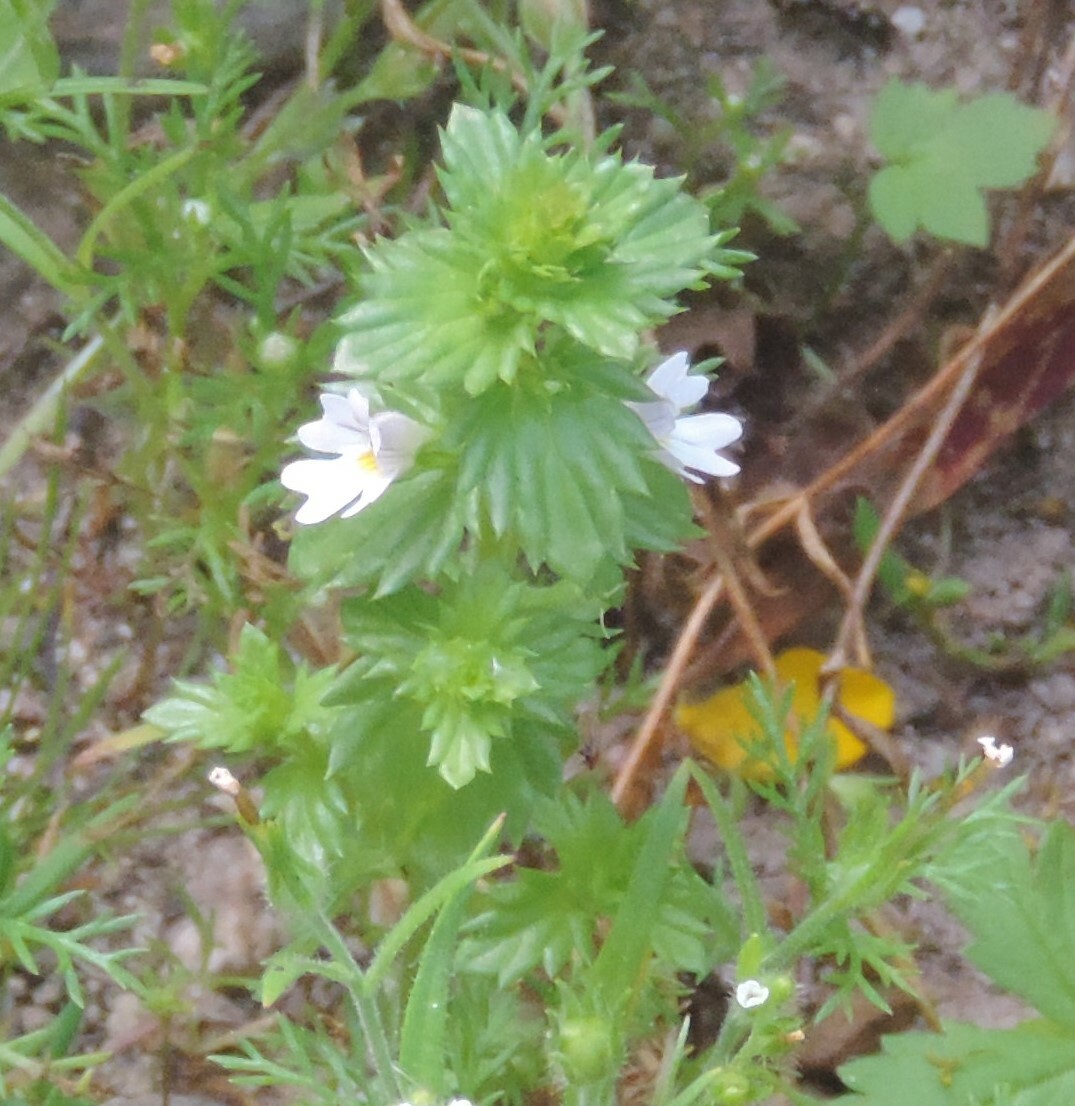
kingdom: Plantae
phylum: Tracheophyta
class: Magnoliopsida
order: Lamiales
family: Orobanchaceae
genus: Euphrasia
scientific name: Euphrasia nemorosa
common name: Common eyebright
